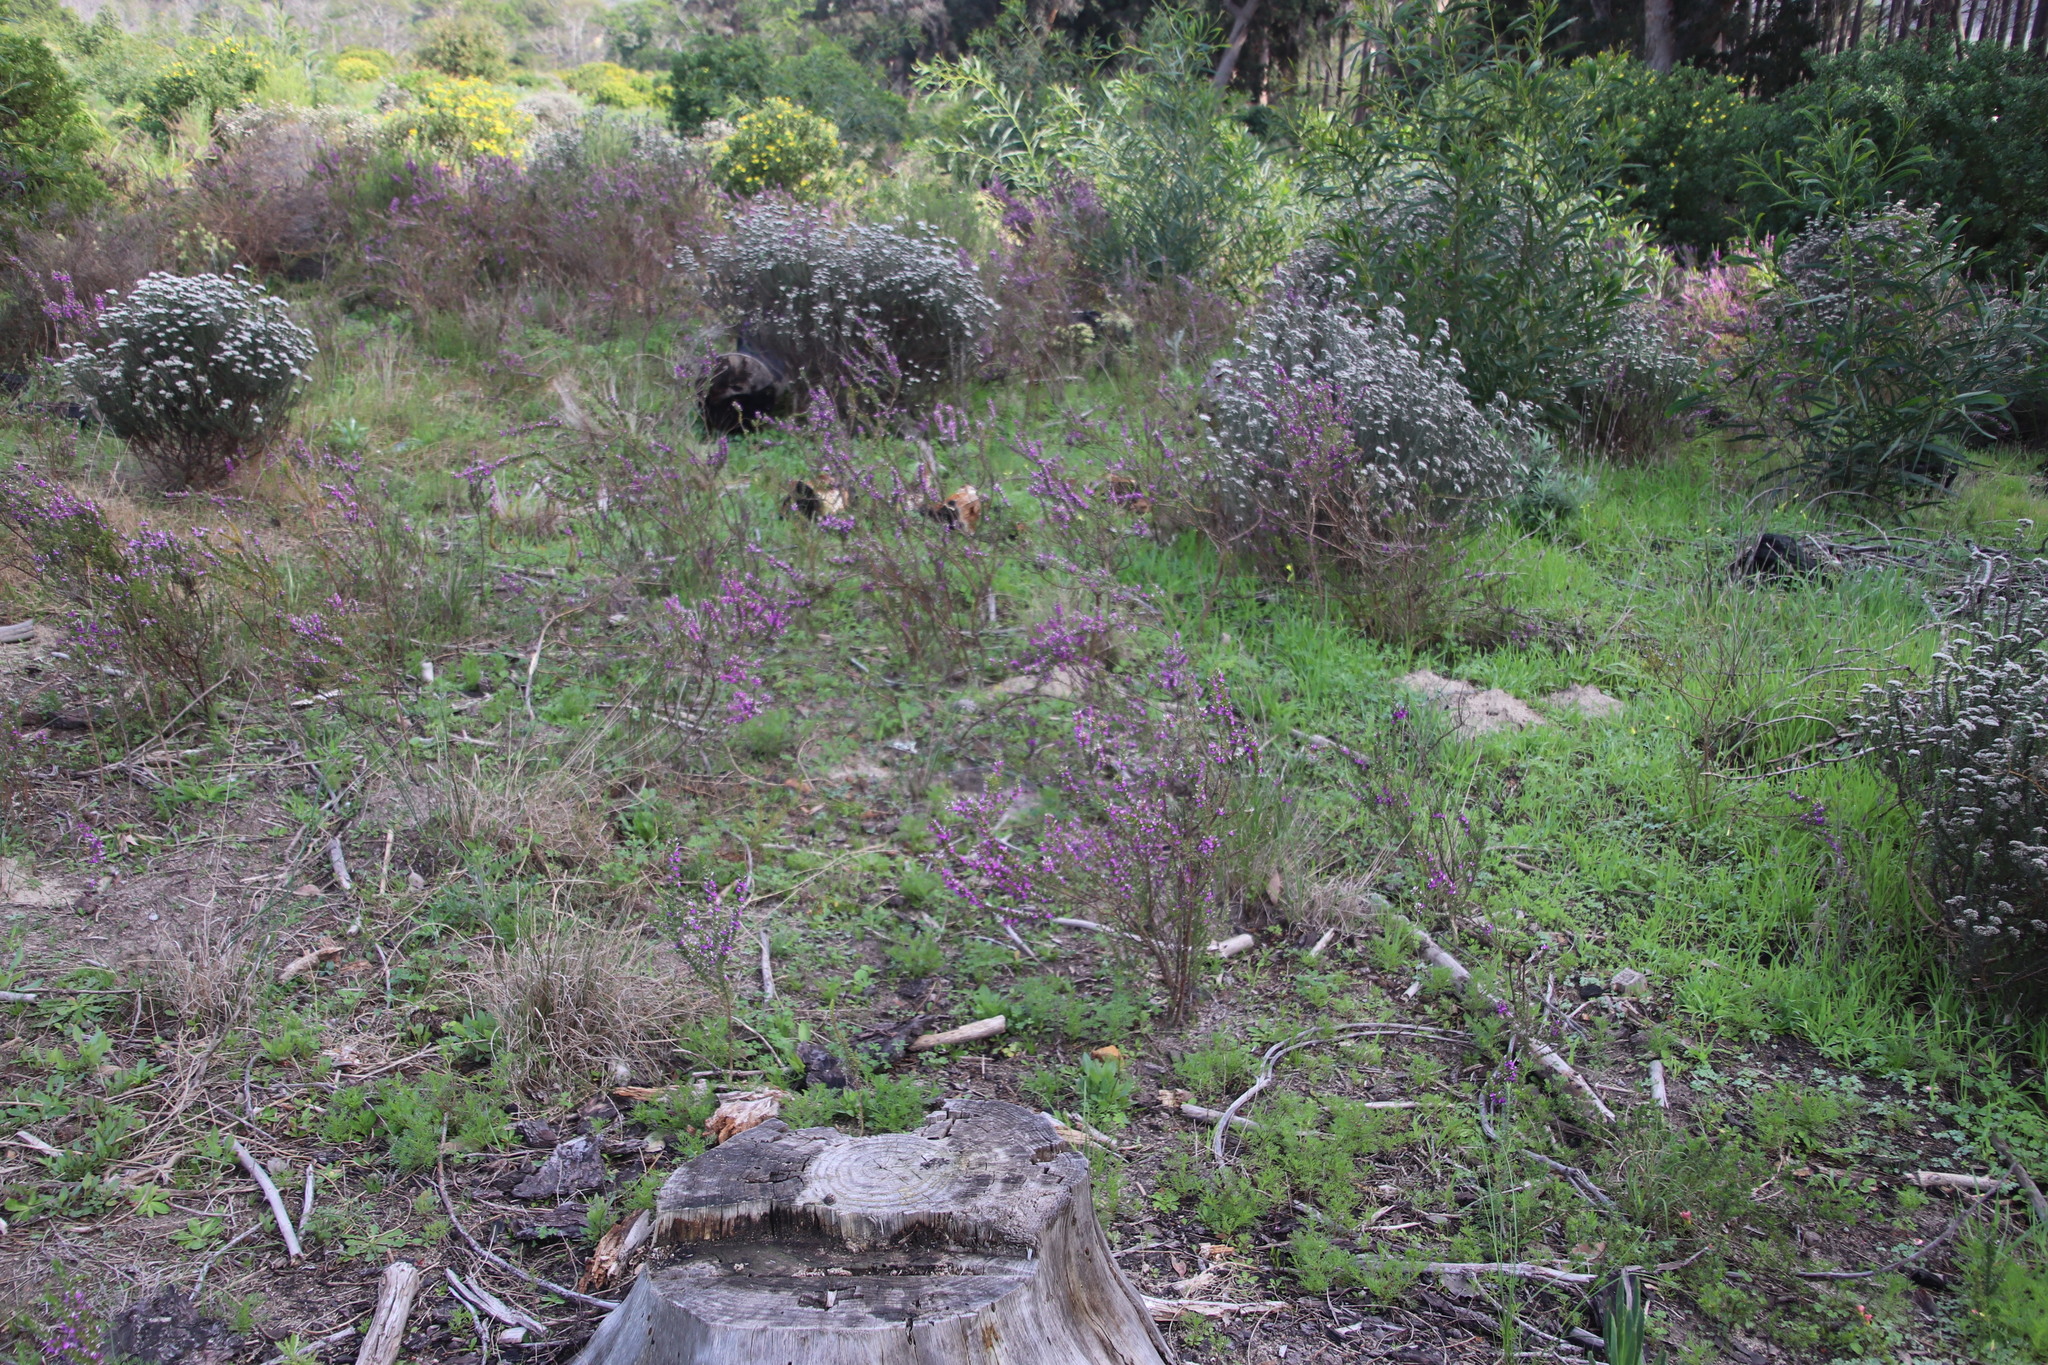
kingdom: Plantae
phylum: Tracheophyta
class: Magnoliopsida
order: Fabales
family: Polygalaceae
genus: Muraltia
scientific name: Muraltia heisteria
